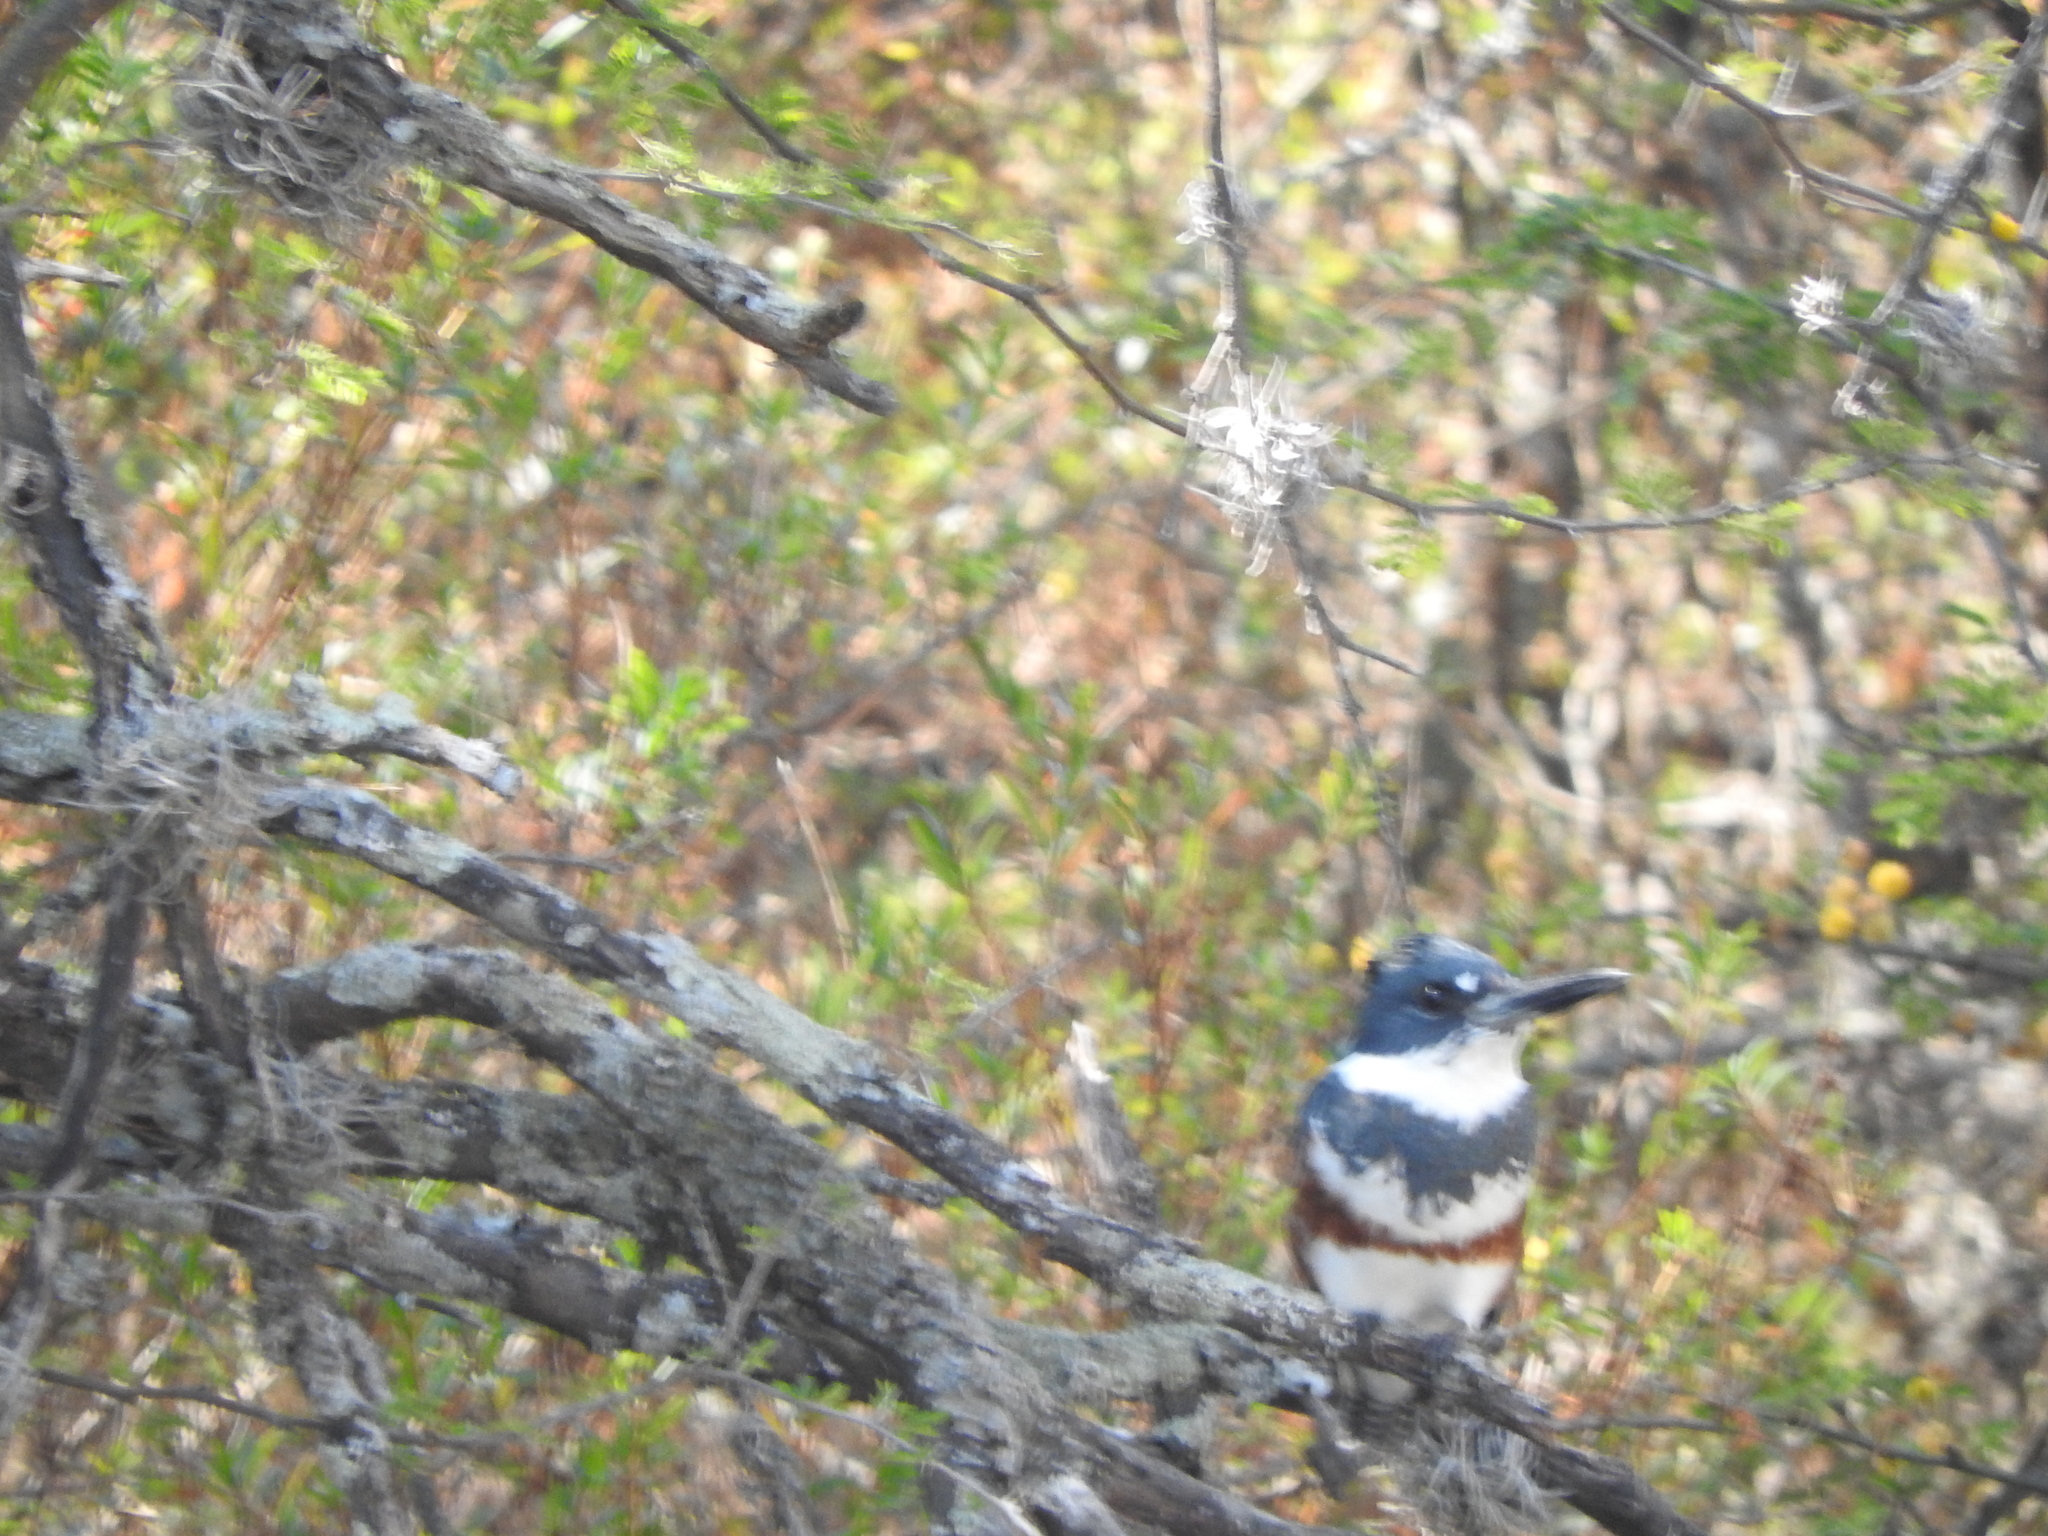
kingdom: Animalia
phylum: Chordata
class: Aves
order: Coraciiformes
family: Alcedinidae
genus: Megaceryle
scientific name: Megaceryle alcyon
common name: Belted kingfisher
